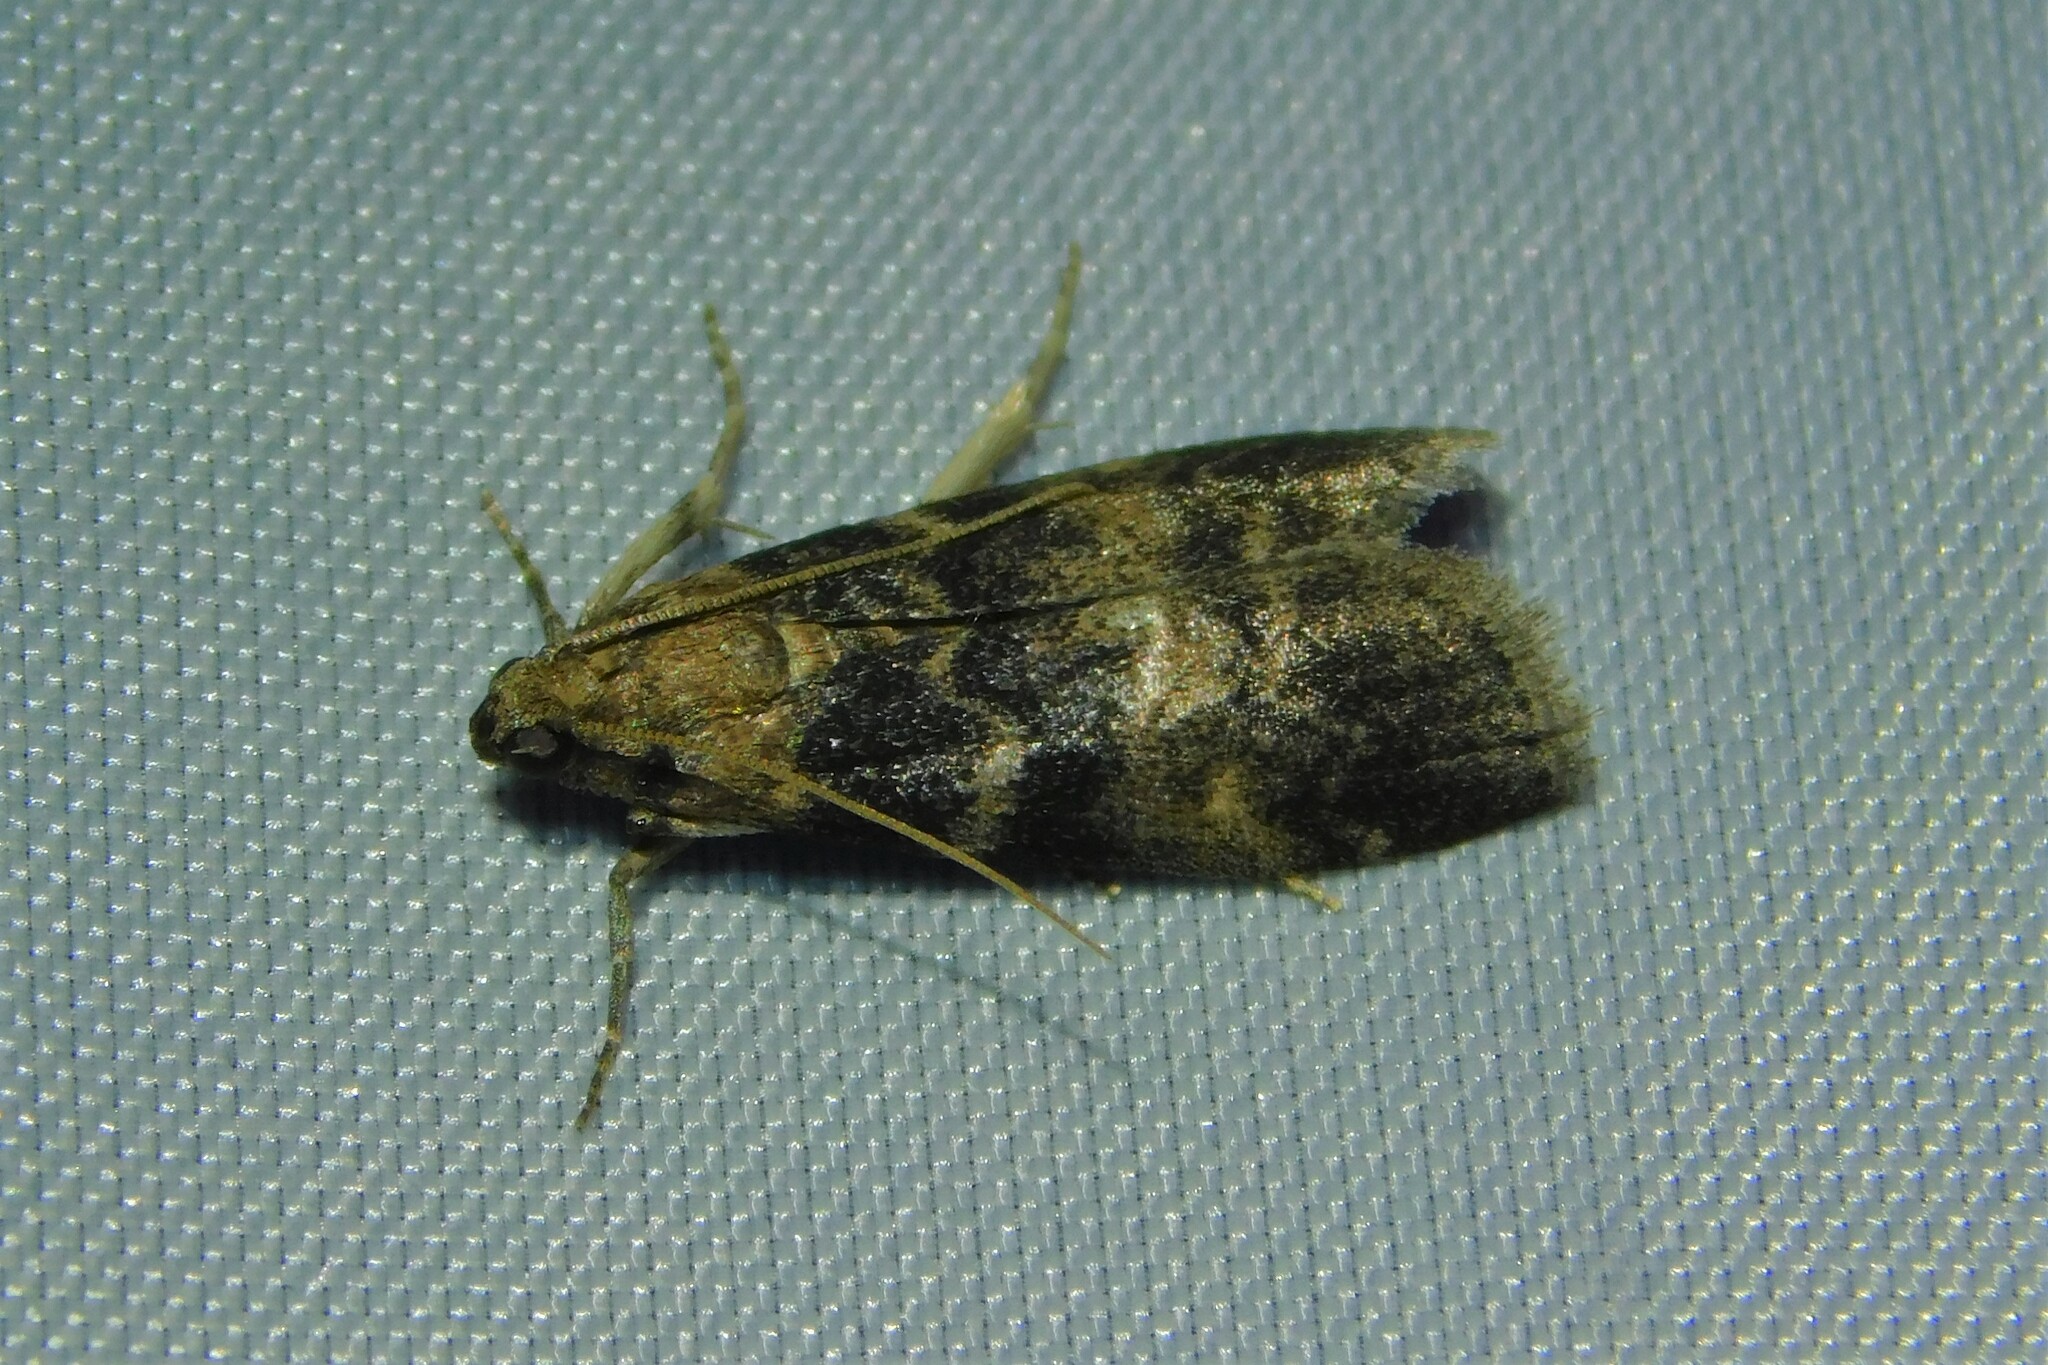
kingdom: Animalia
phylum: Arthropoda
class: Insecta
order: Lepidoptera
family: Pyralidae
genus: Euzophera
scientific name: Euzophera pinguis
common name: Ash-bark knot-horn
